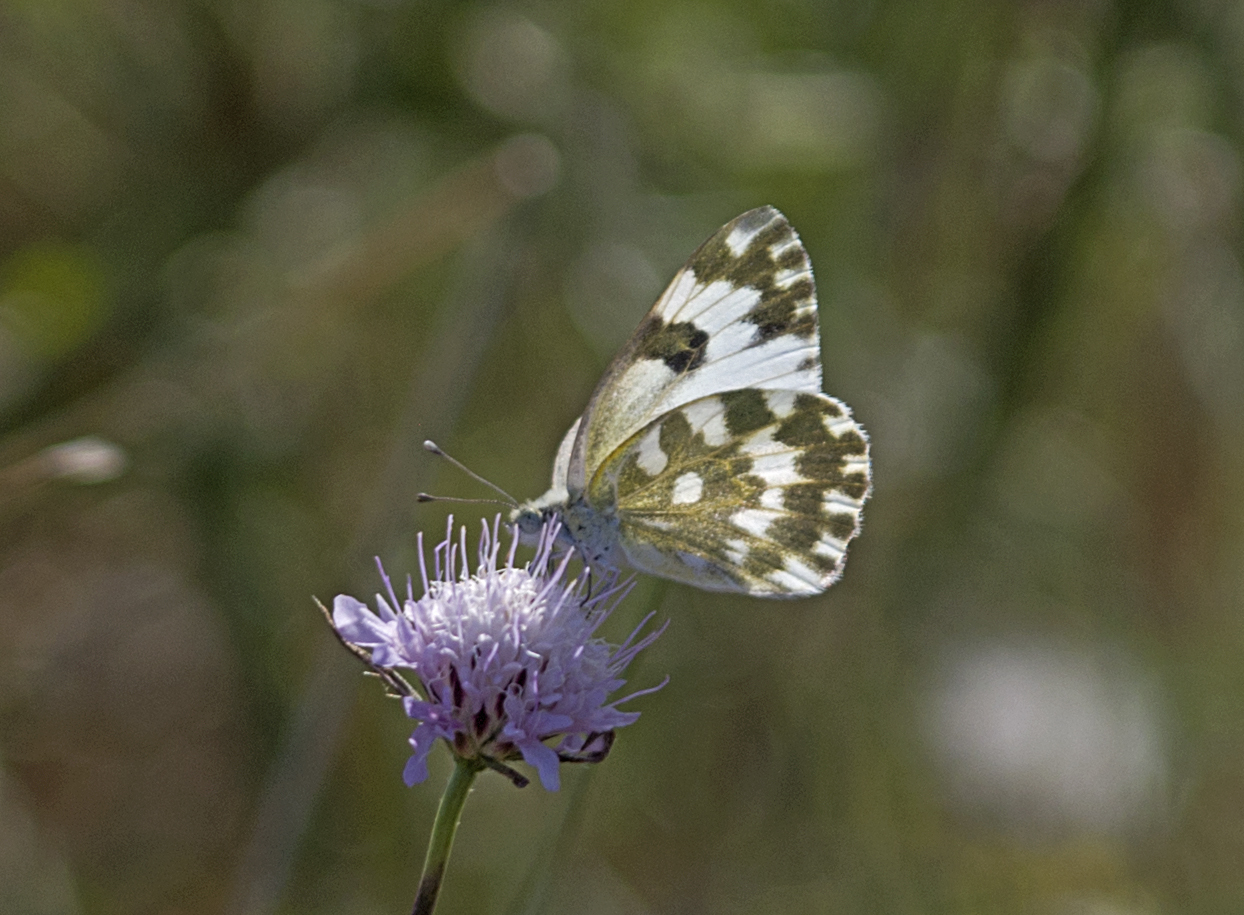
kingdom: Animalia
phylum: Arthropoda
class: Insecta
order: Lepidoptera
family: Pieridae
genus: Pontia
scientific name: Pontia edusa
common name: Eastern bath white
